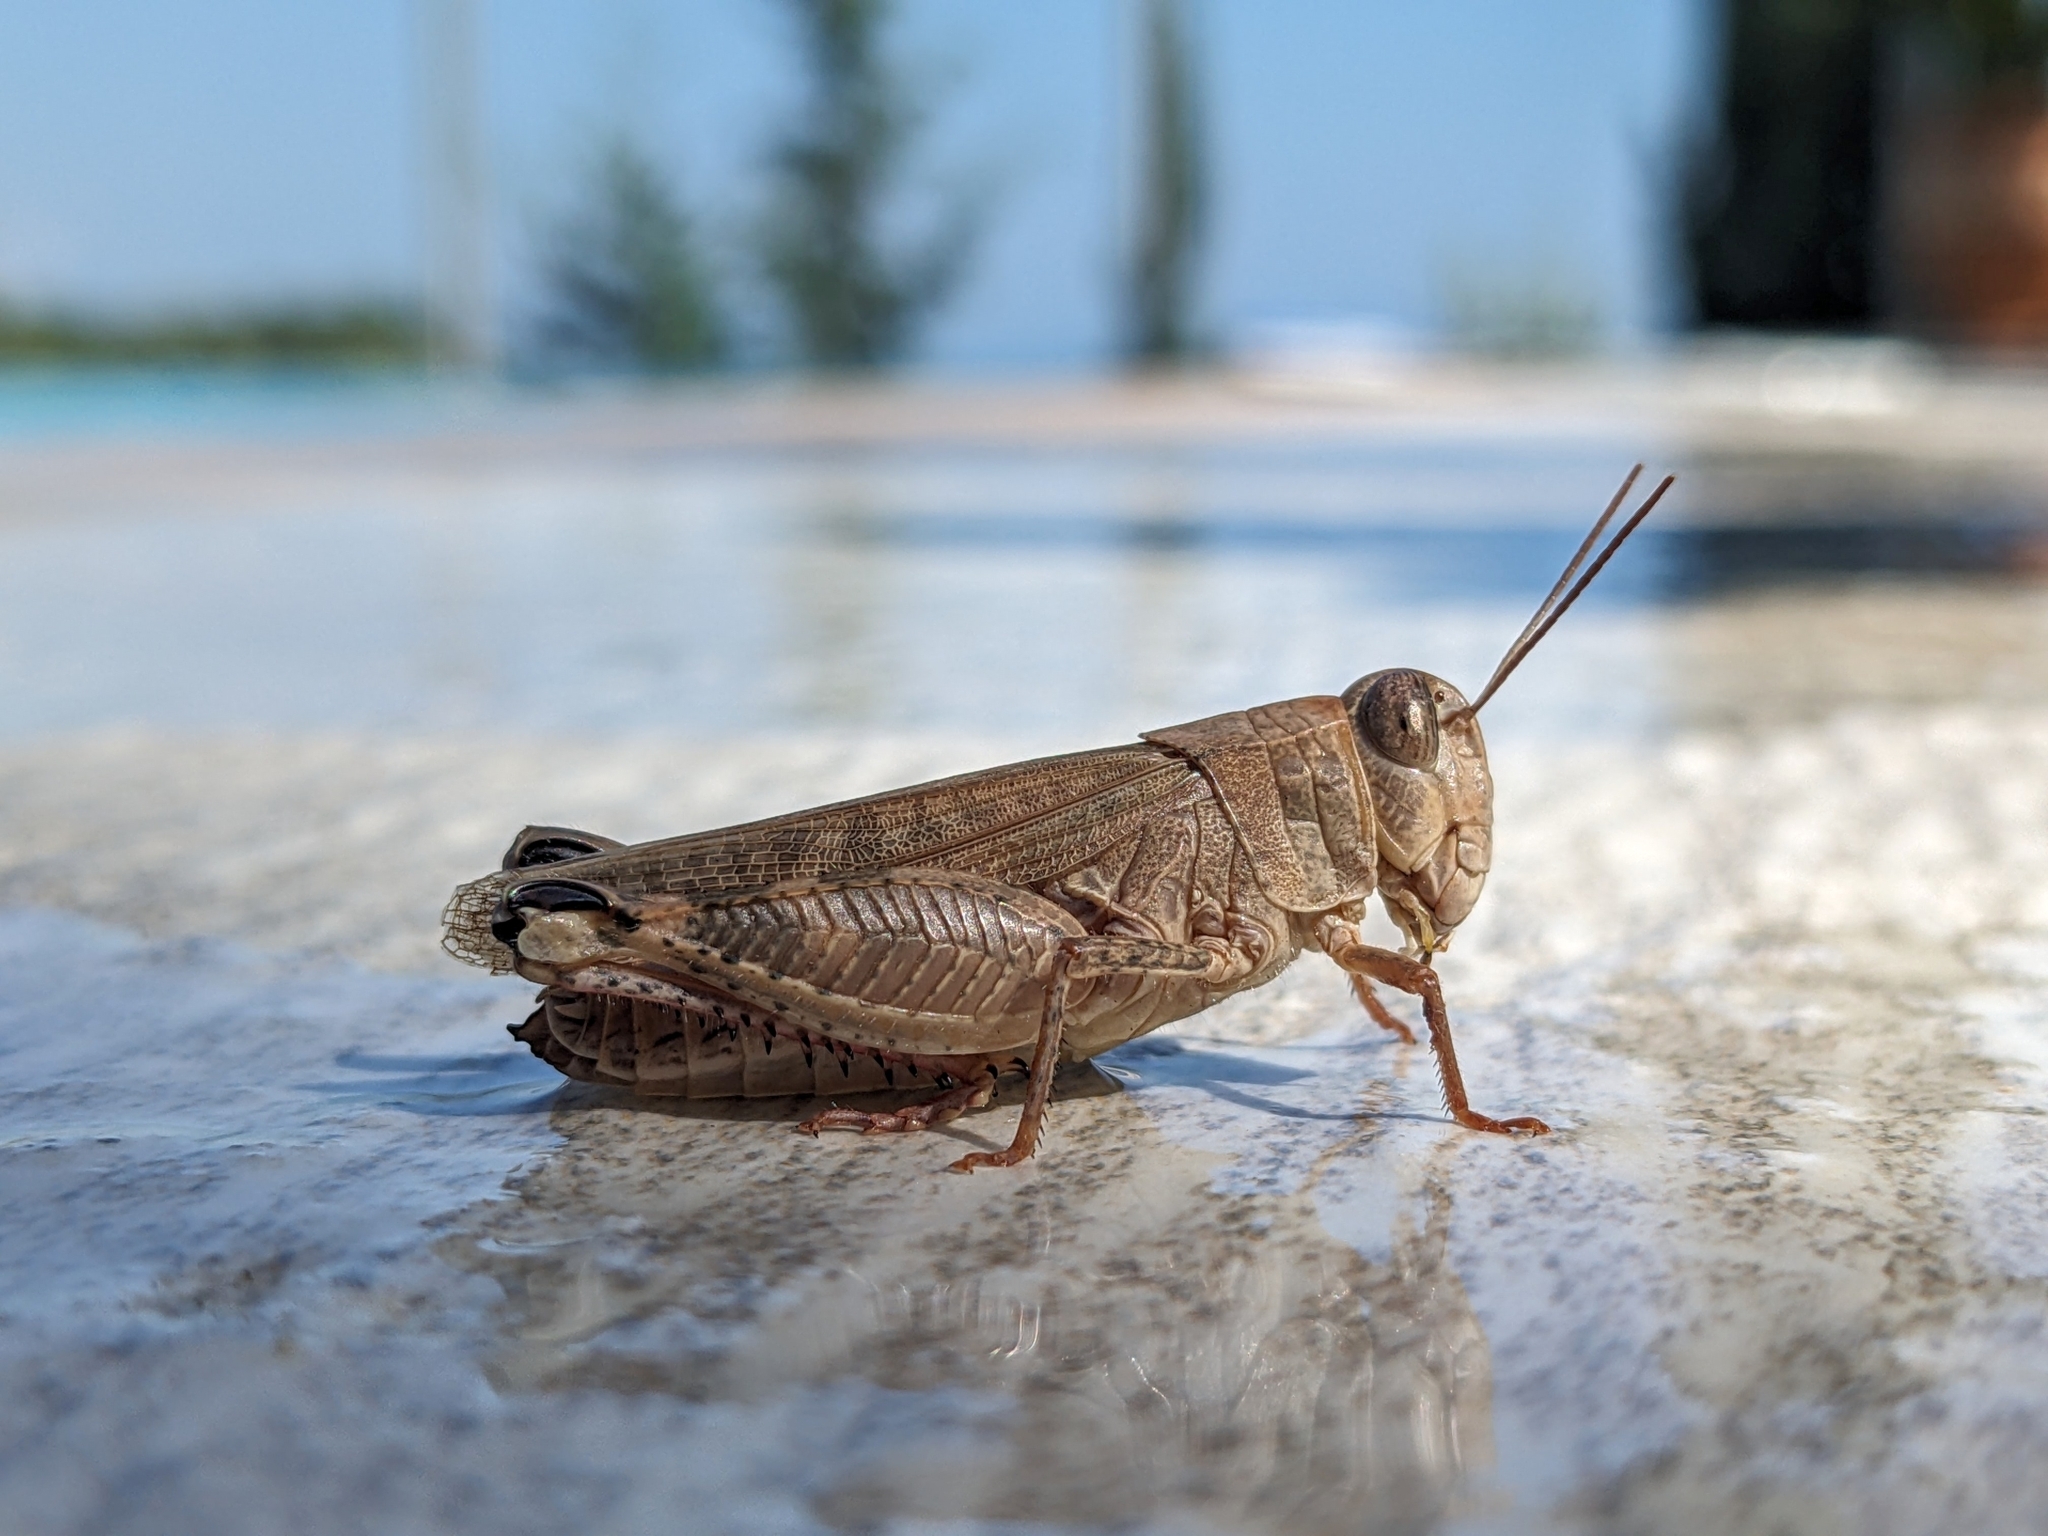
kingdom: Animalia
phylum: Arthropoda
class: Insecta
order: Orthoptera
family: Acrididae
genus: Calliptamus
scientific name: Calliptamus
